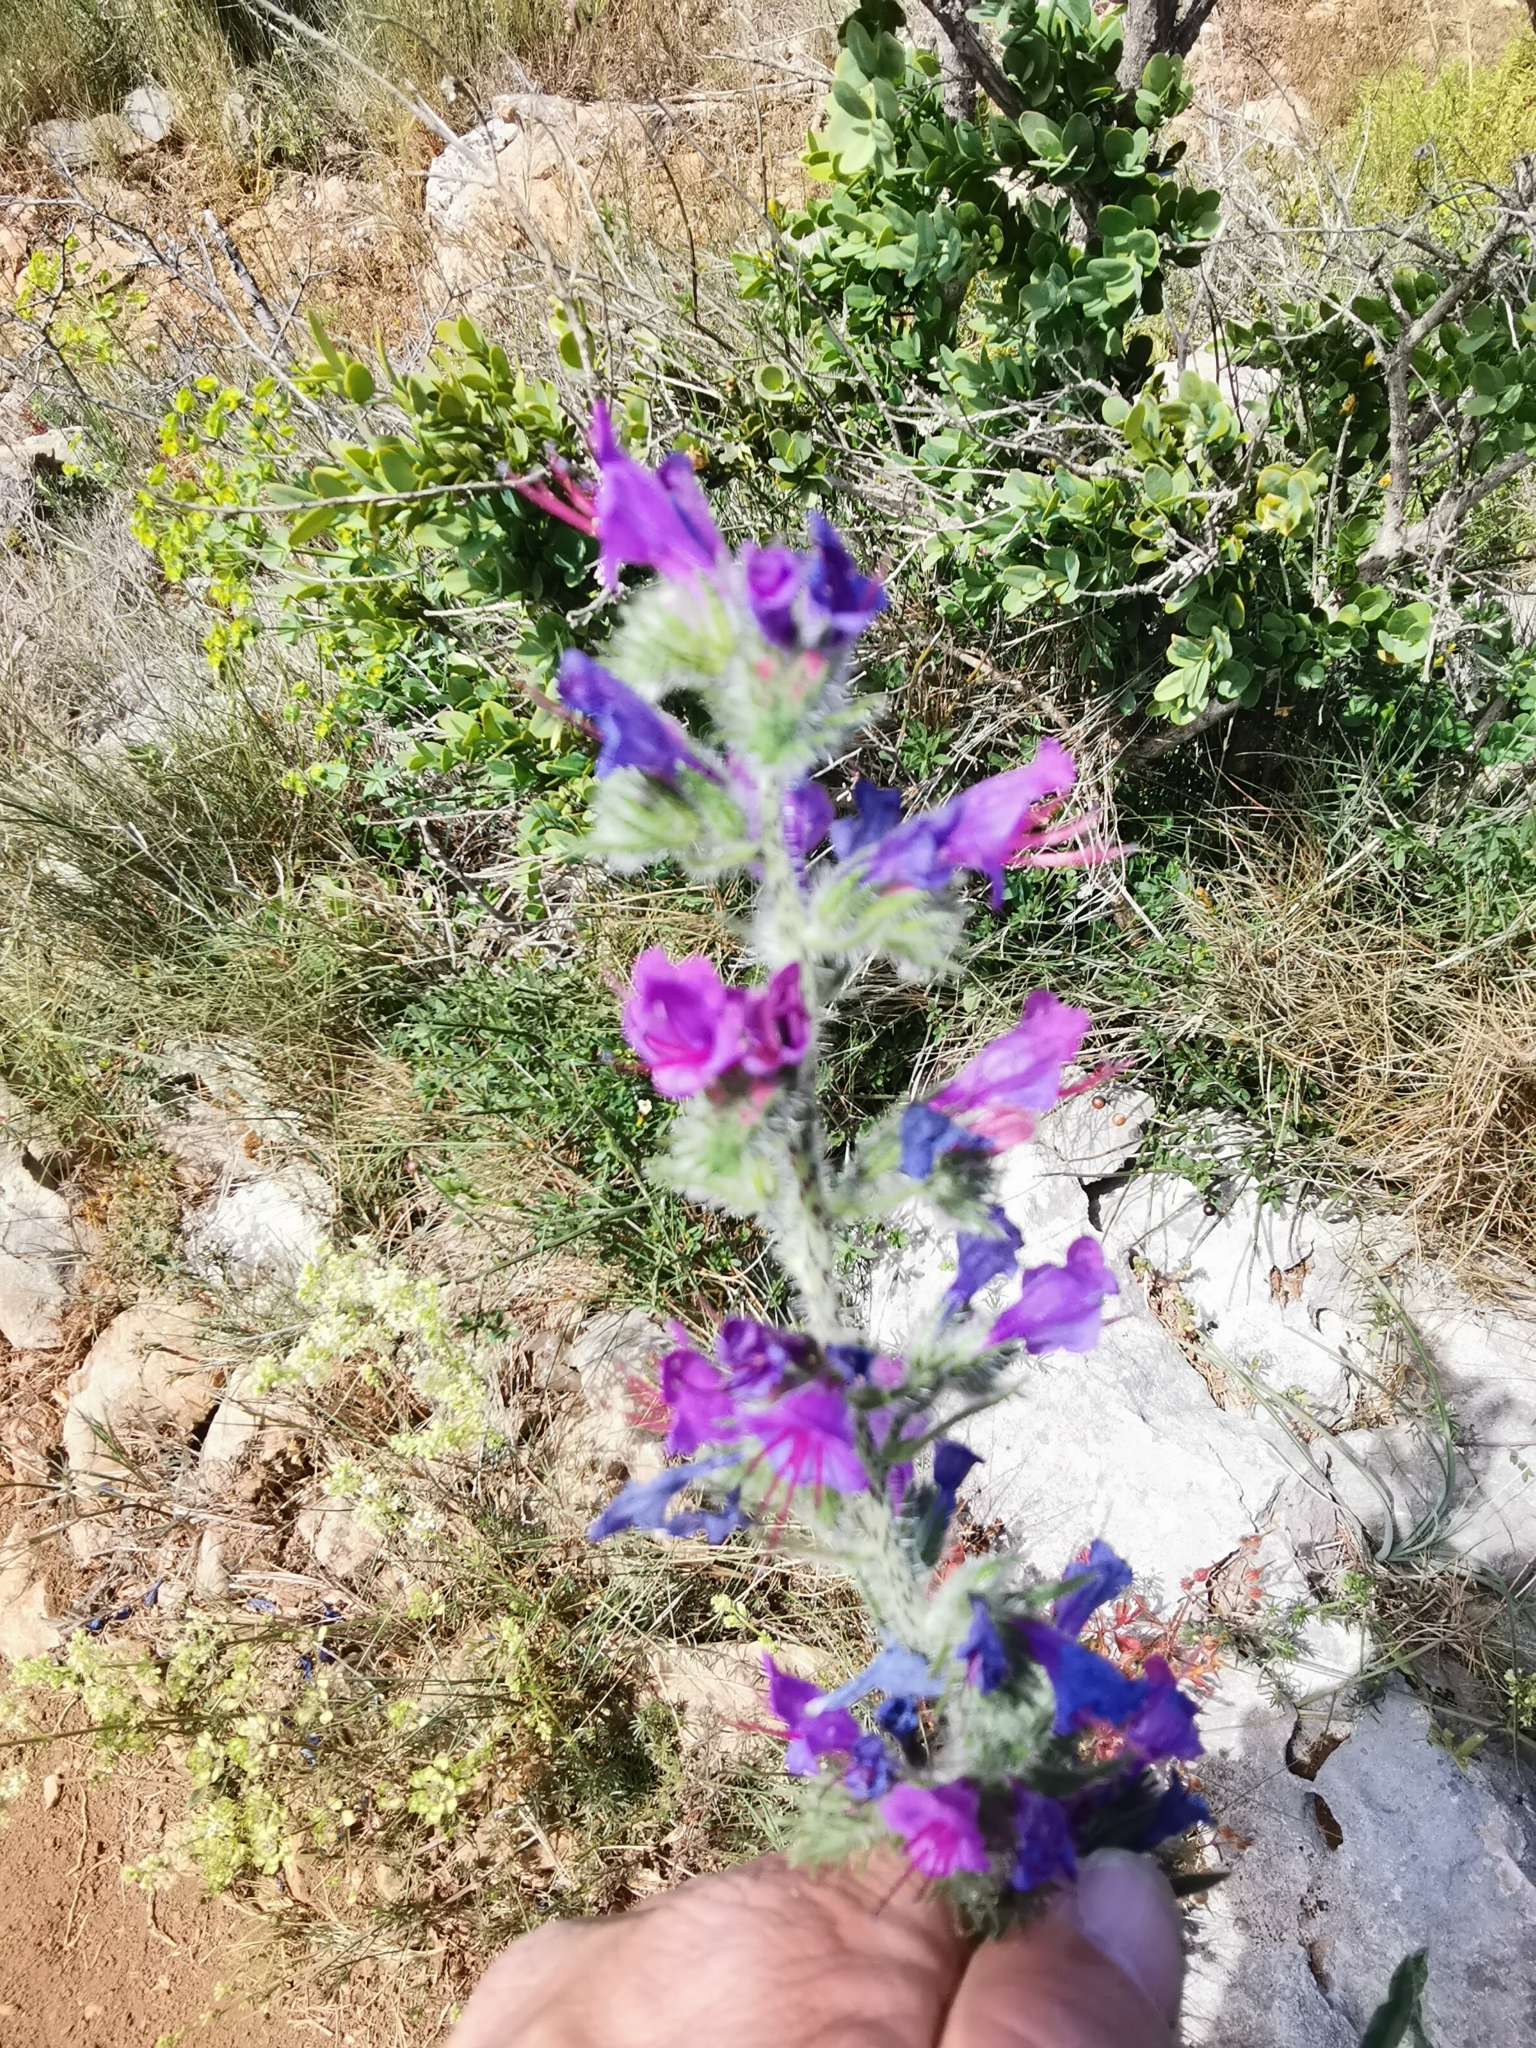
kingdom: Plantae
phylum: Tracheophyta
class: Magnoliopsida
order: Boraginales
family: Boraginaceae
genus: Echium
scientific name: Echium vulgare
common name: Common viper's bugloss
